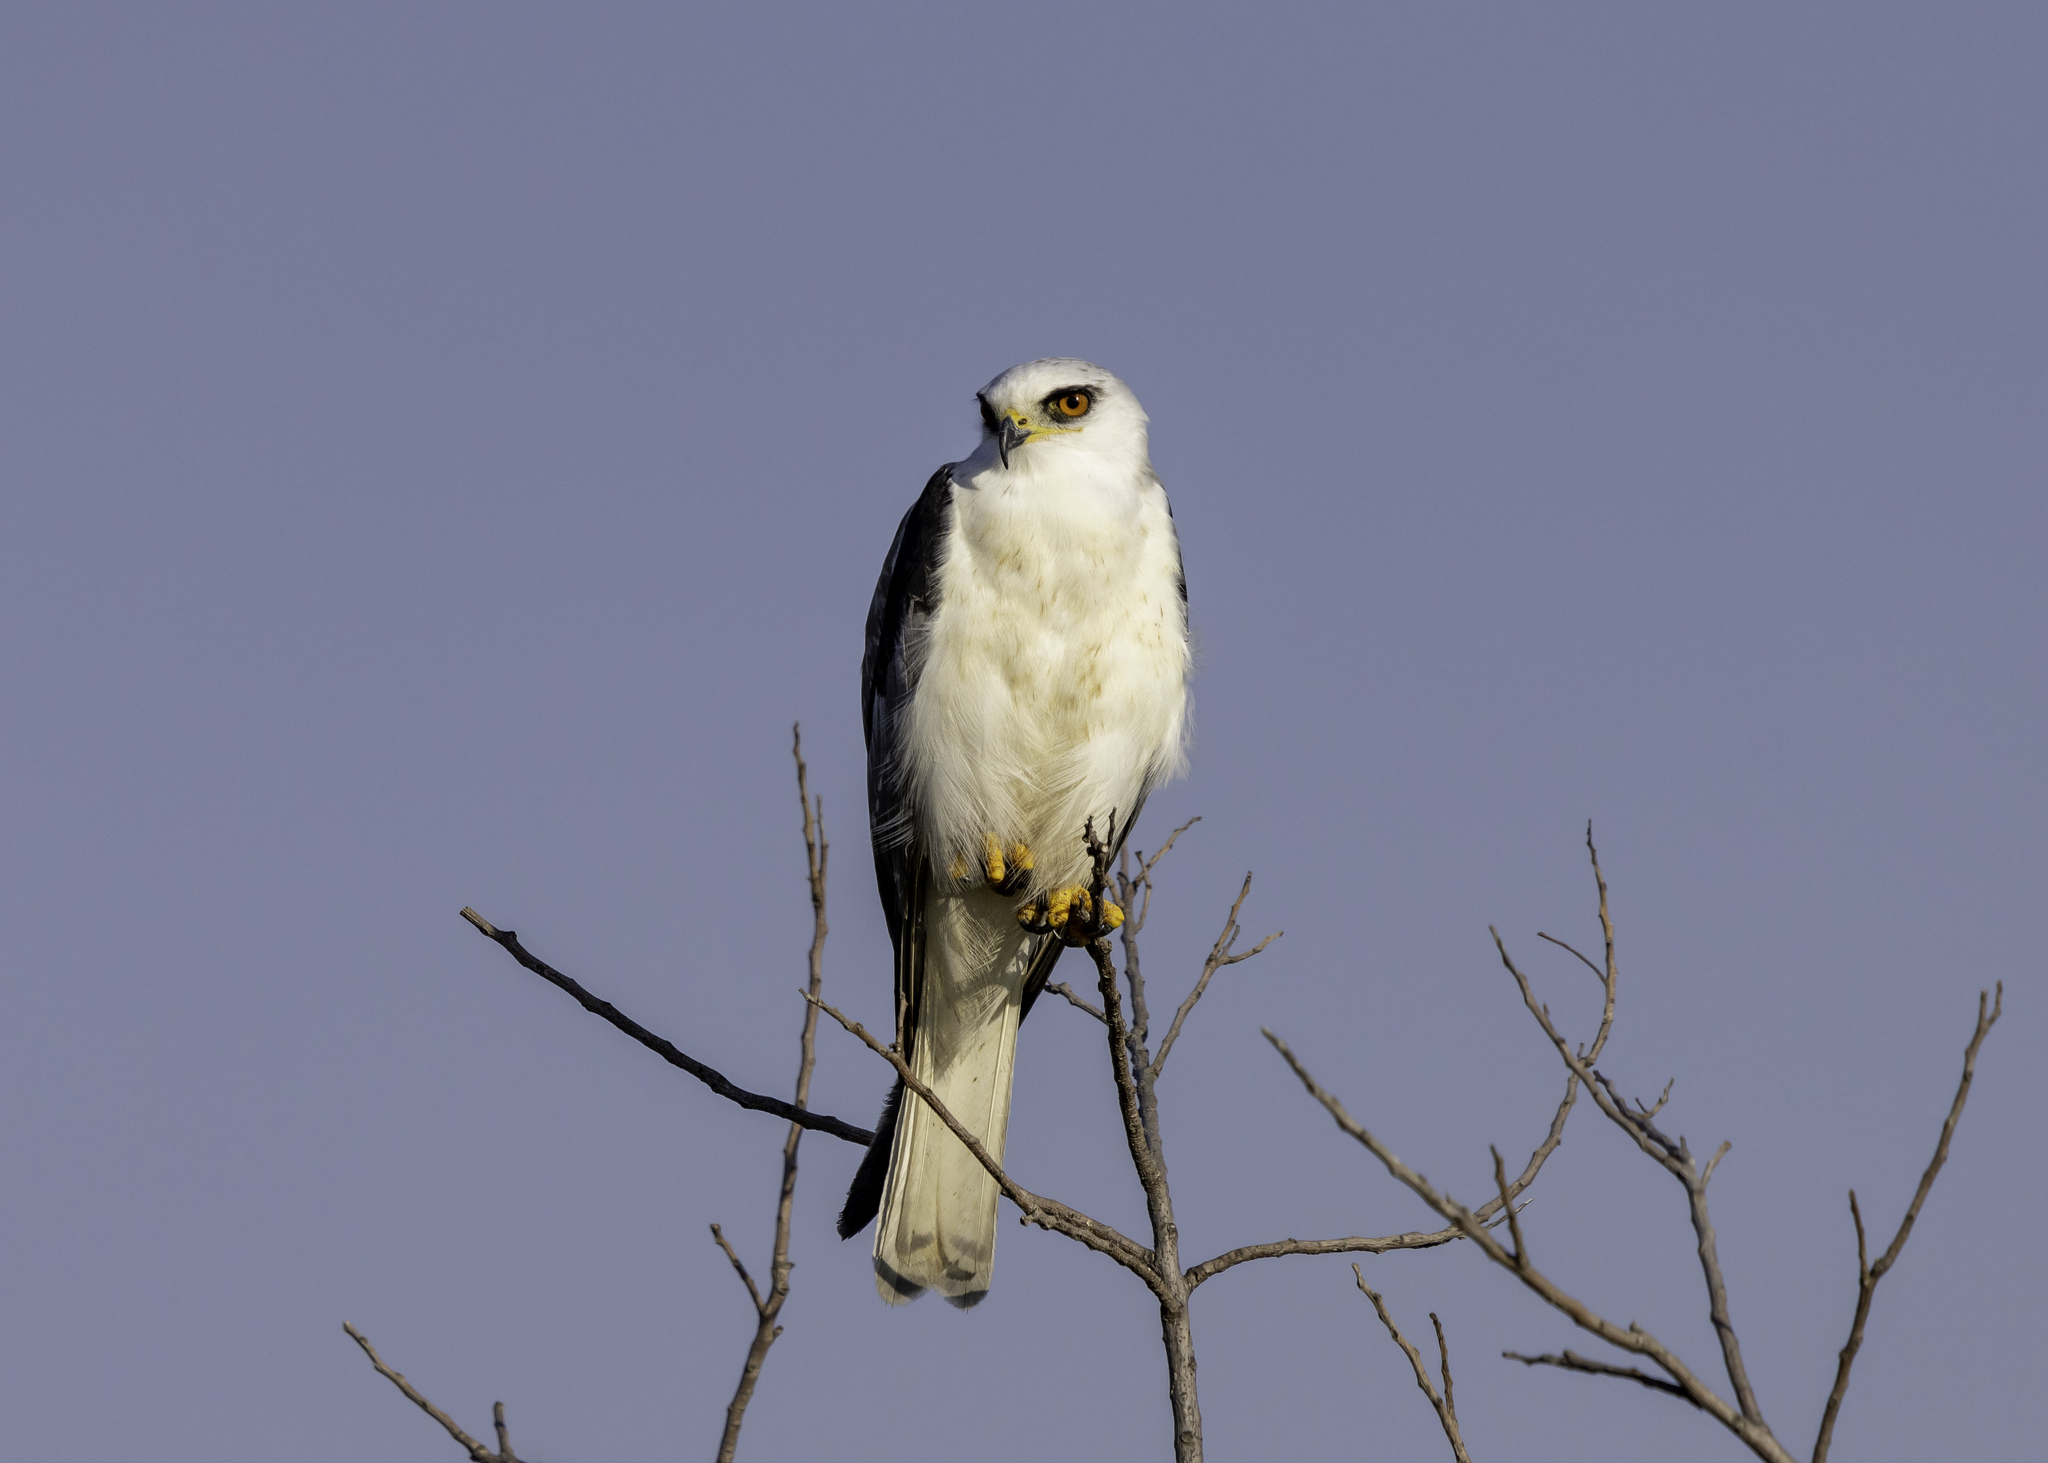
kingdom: Animalia
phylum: Chordata
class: Aves
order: Accipitriformes
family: Accipitridae
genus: Elanus
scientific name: Elanus leucurus
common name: White-tailed kite
